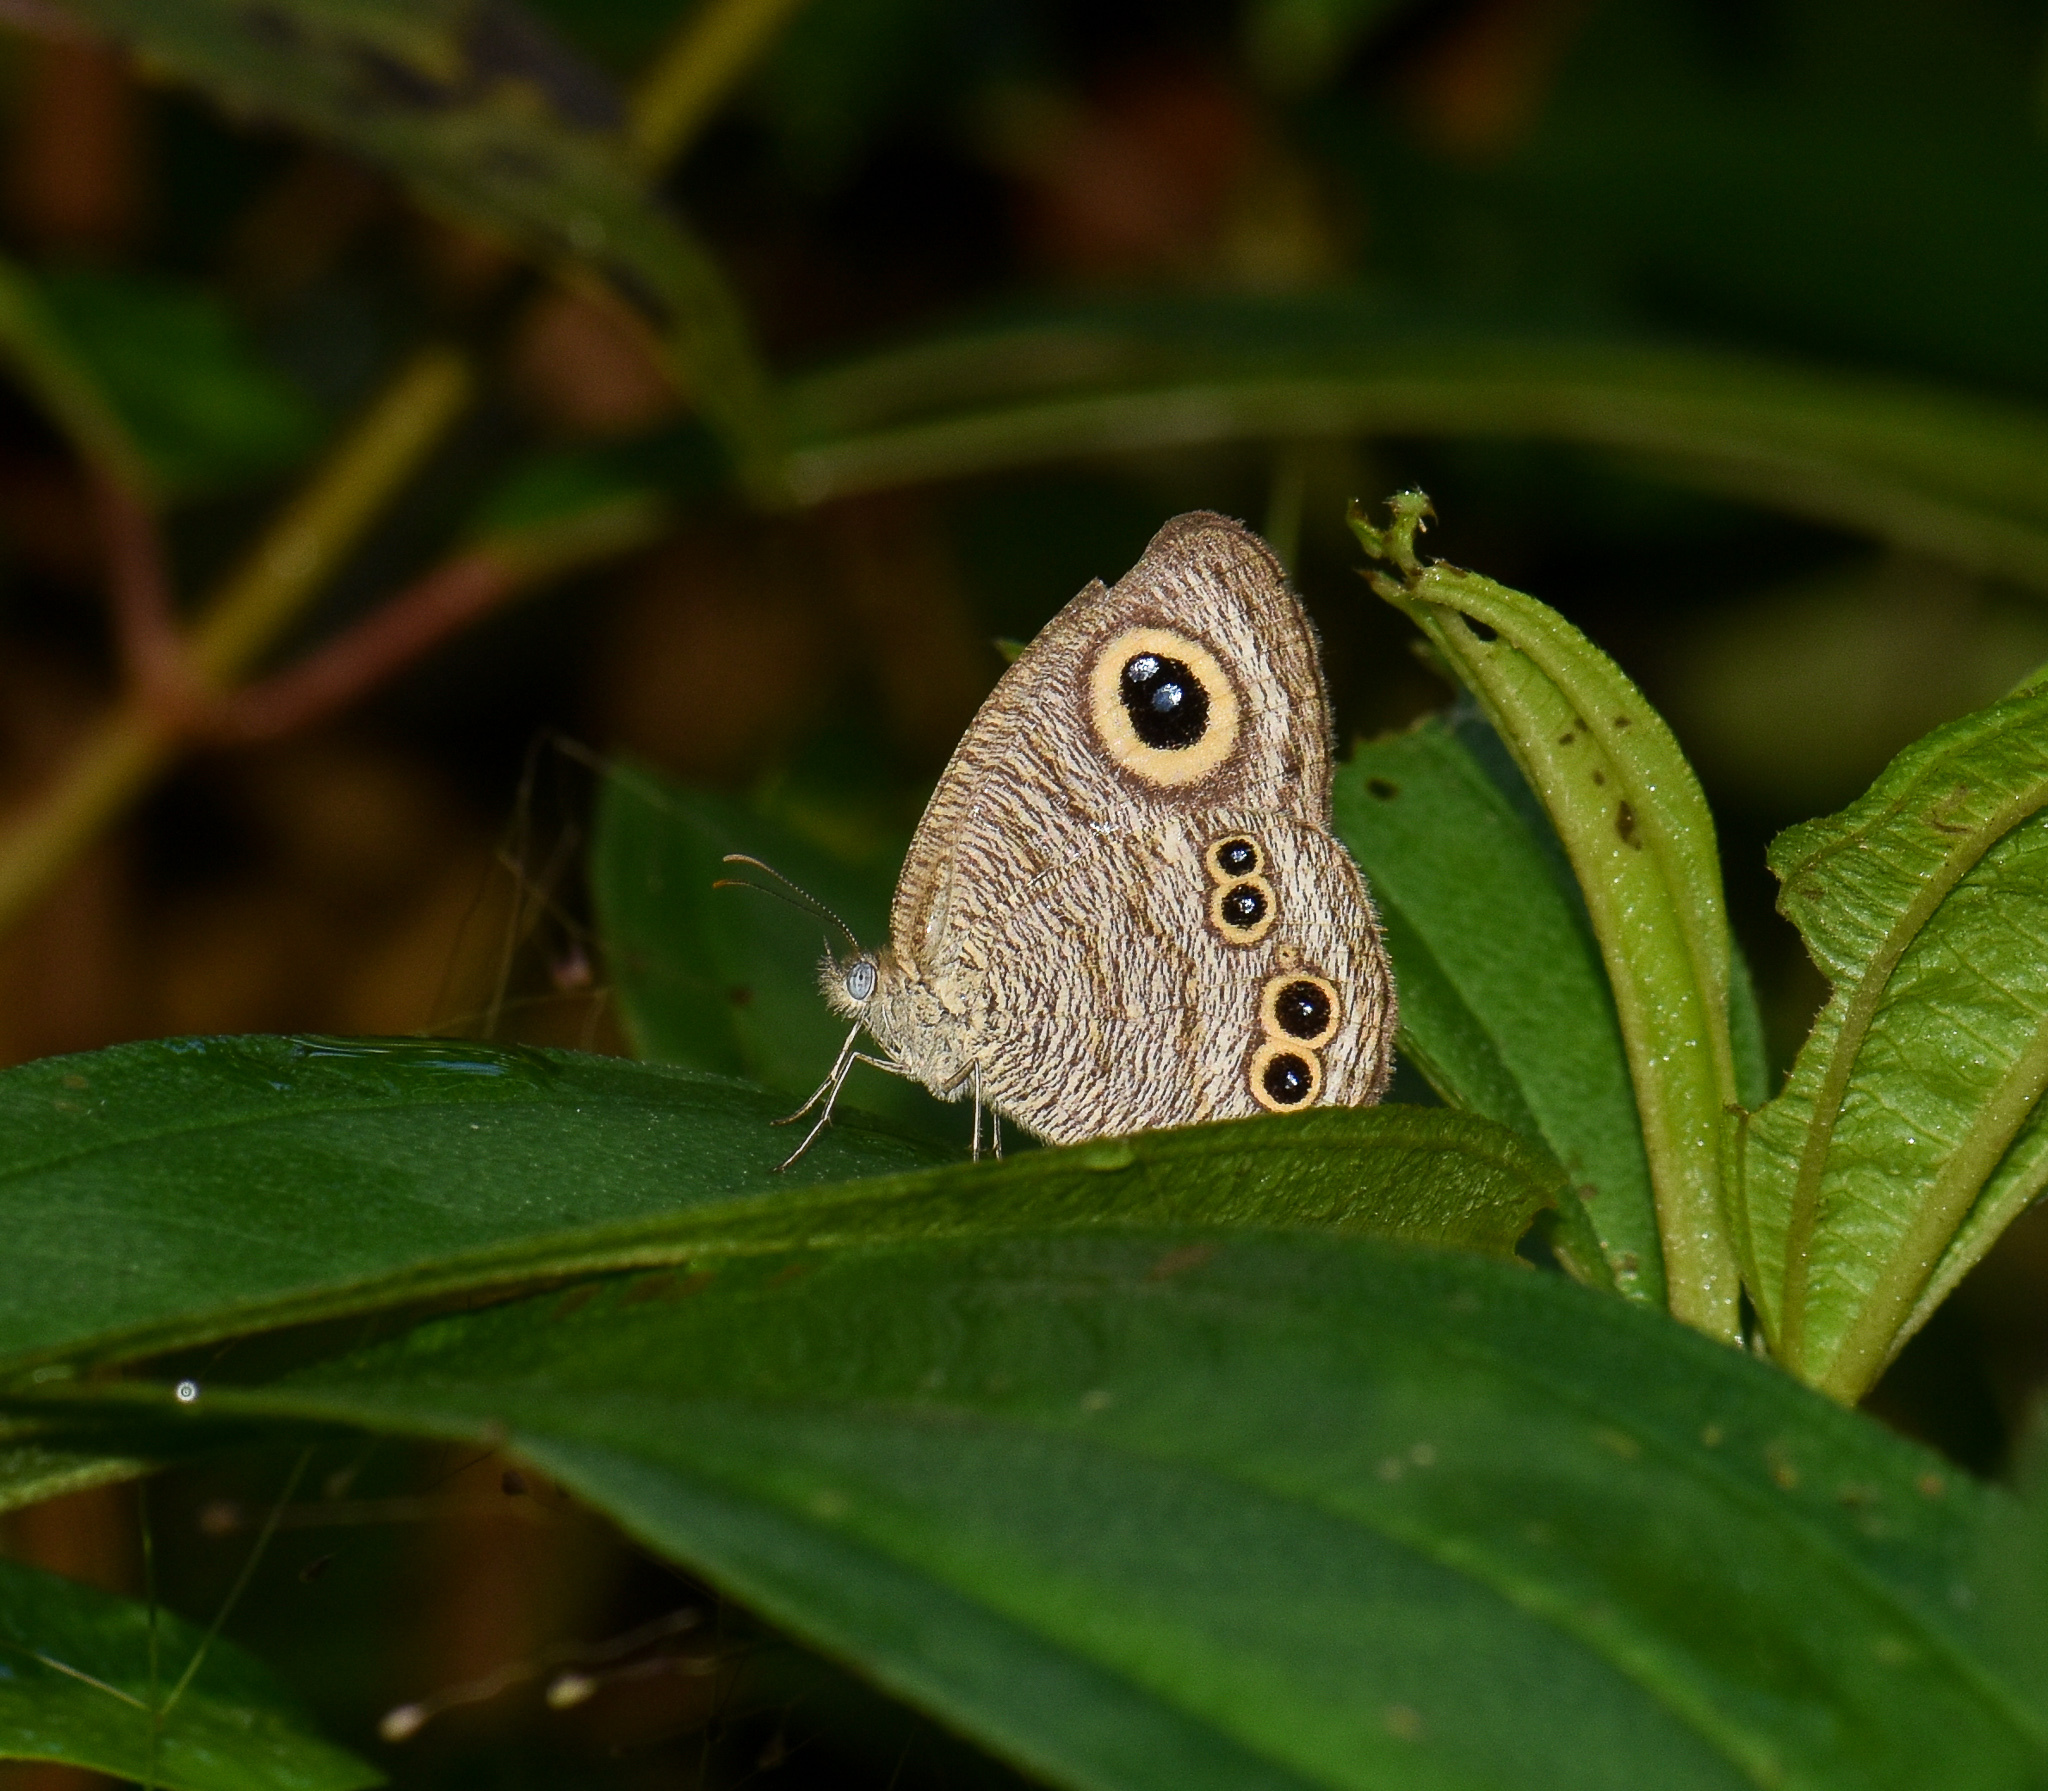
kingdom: Animalia
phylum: Arthropoda
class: Insecta
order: Lepidoptera
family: Nymphalidae
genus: Ypthima
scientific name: Ypthima baldus
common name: Common five-ring
